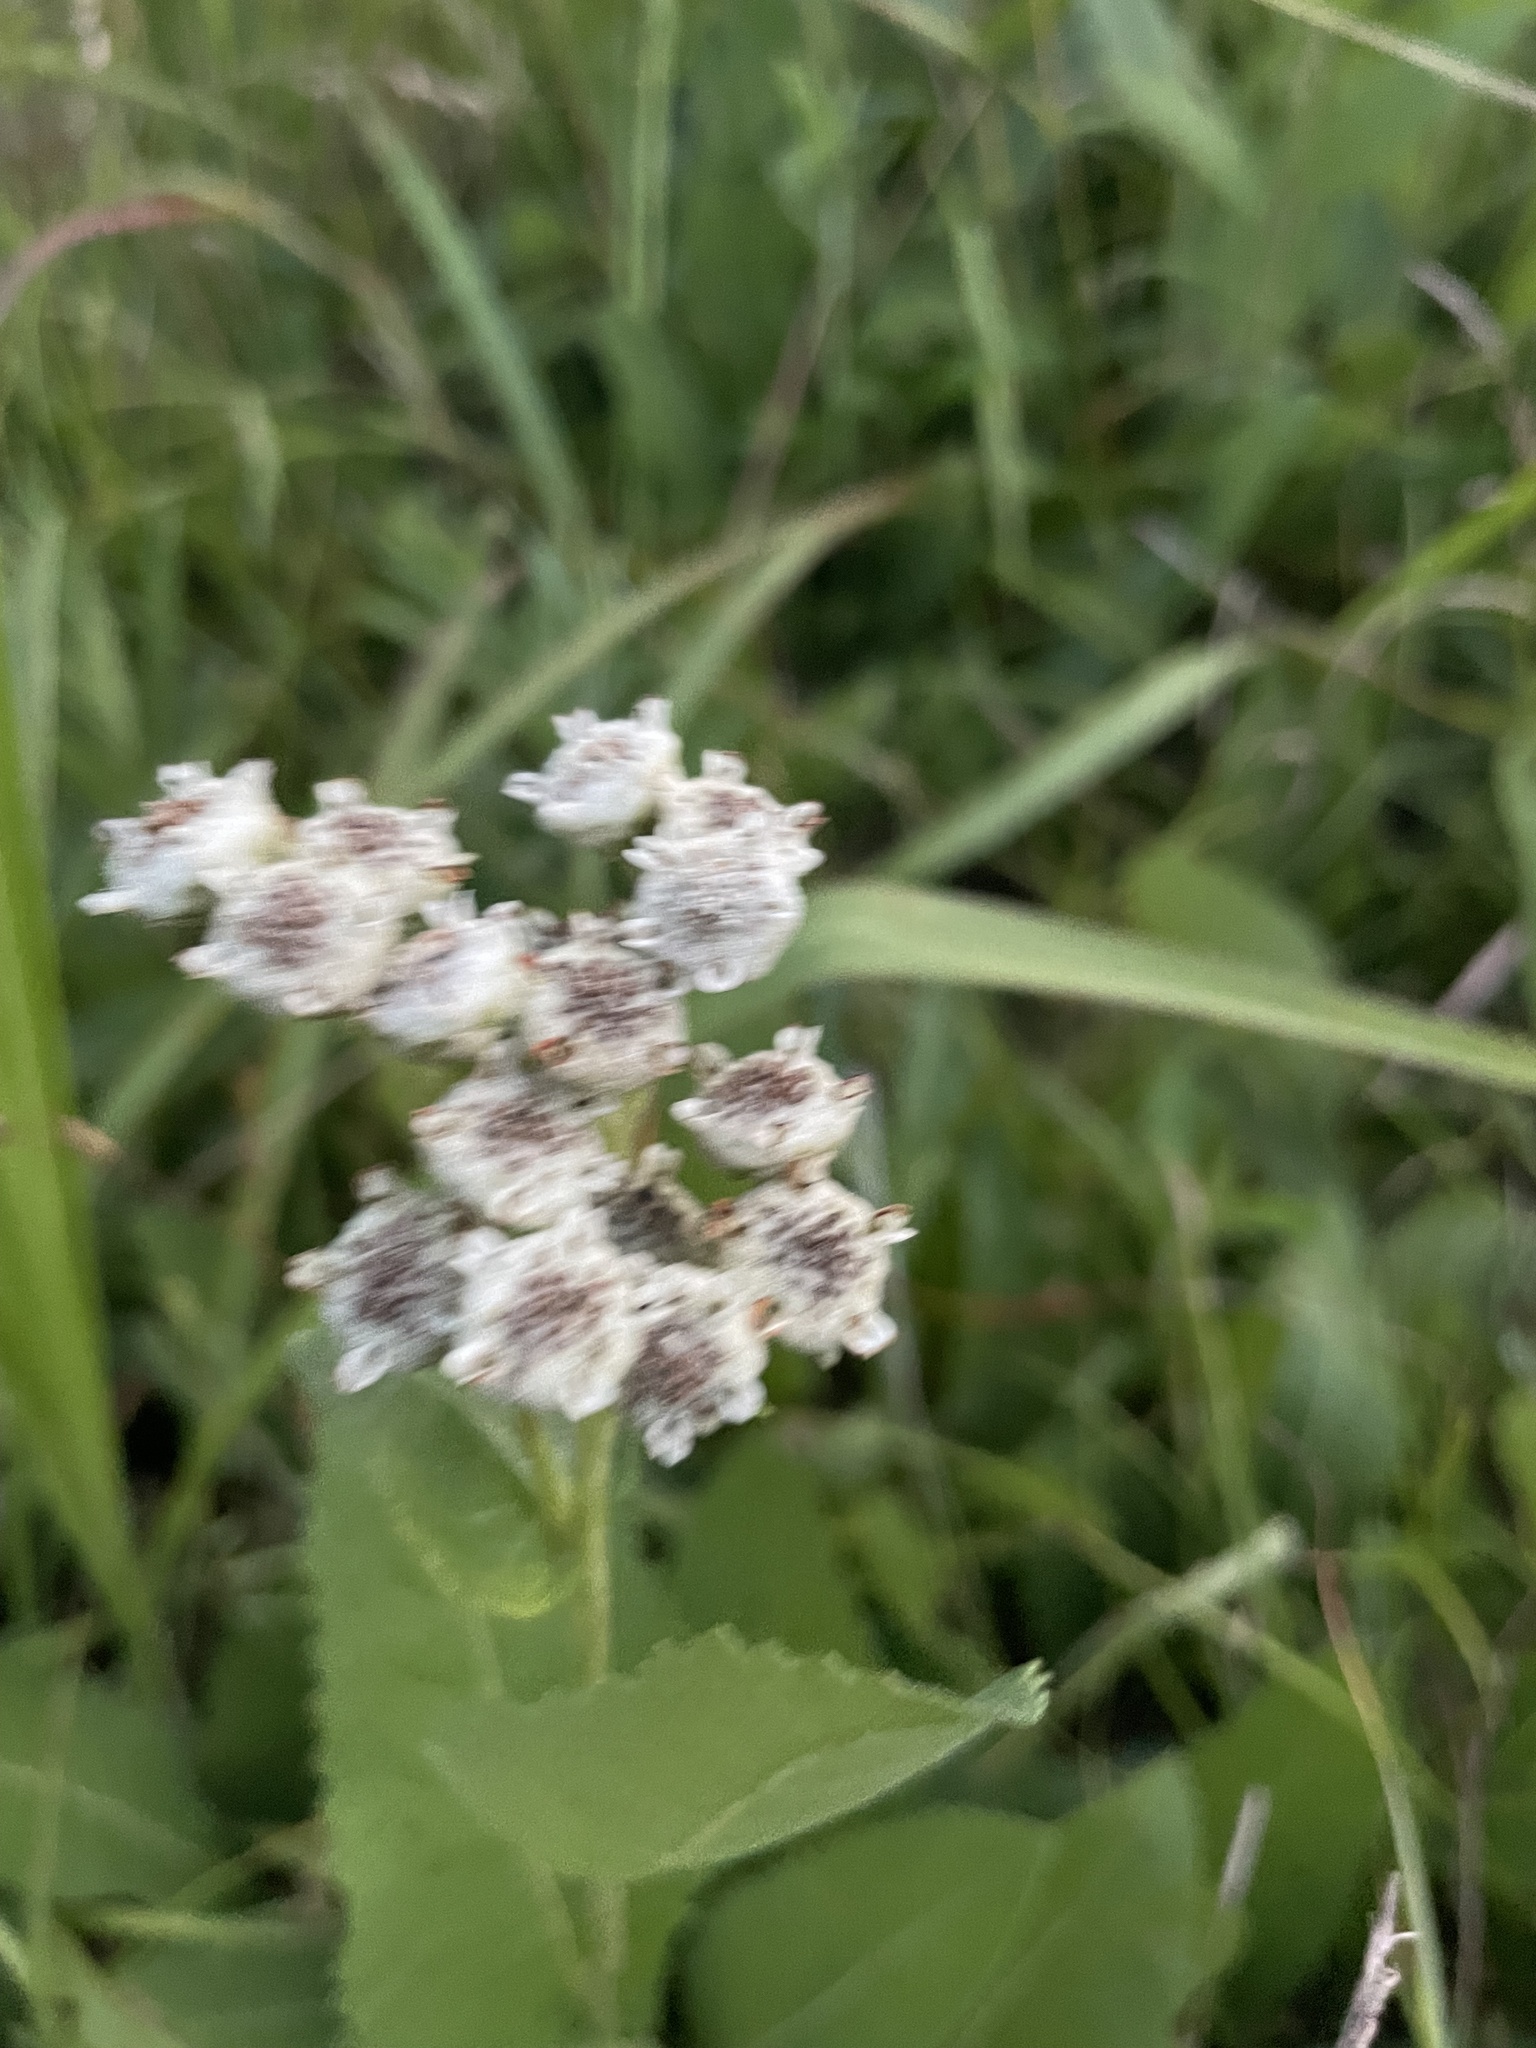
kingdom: Plantae
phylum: Tracheophyta
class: Magnoliopsida
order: Asterales
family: Asteraceae
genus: Parthenium
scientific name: Parthenium hispidum
